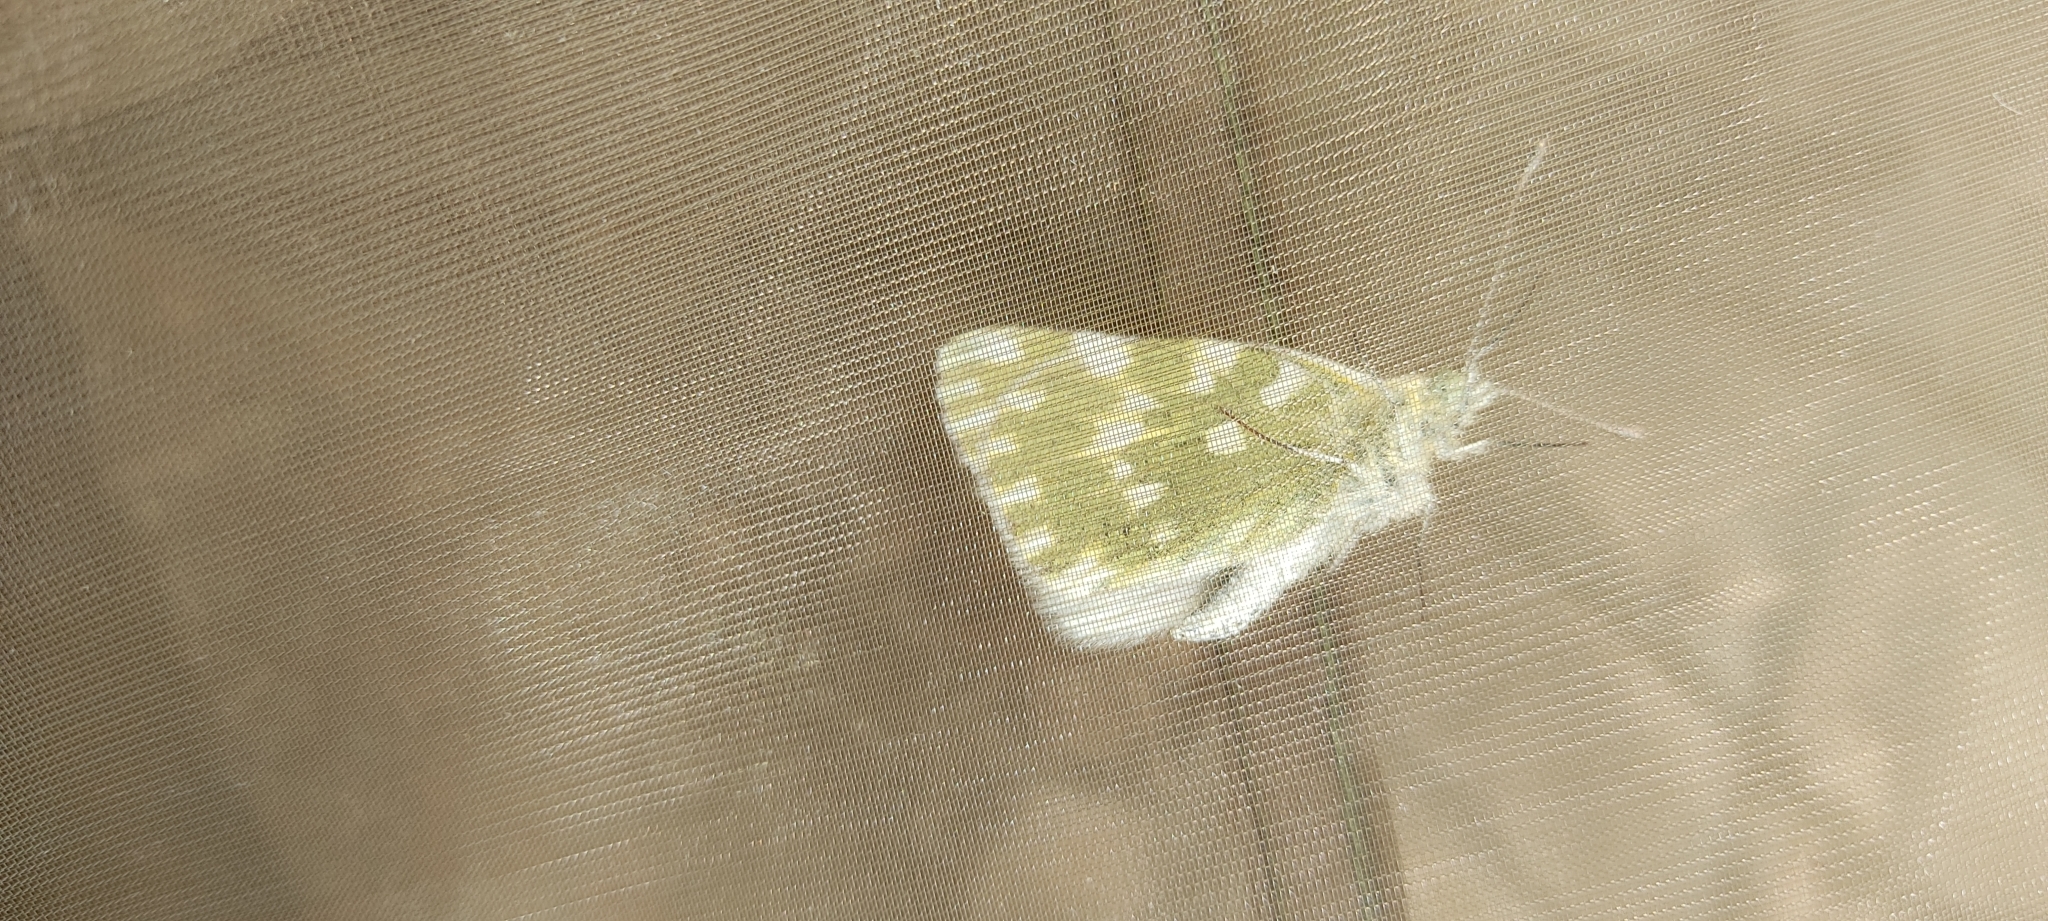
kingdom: Animalia
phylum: Arthropoda
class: Insecta
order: Lepidoptera
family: Pieridae
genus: Pontia
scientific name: Pontia daplidice
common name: Bath white
